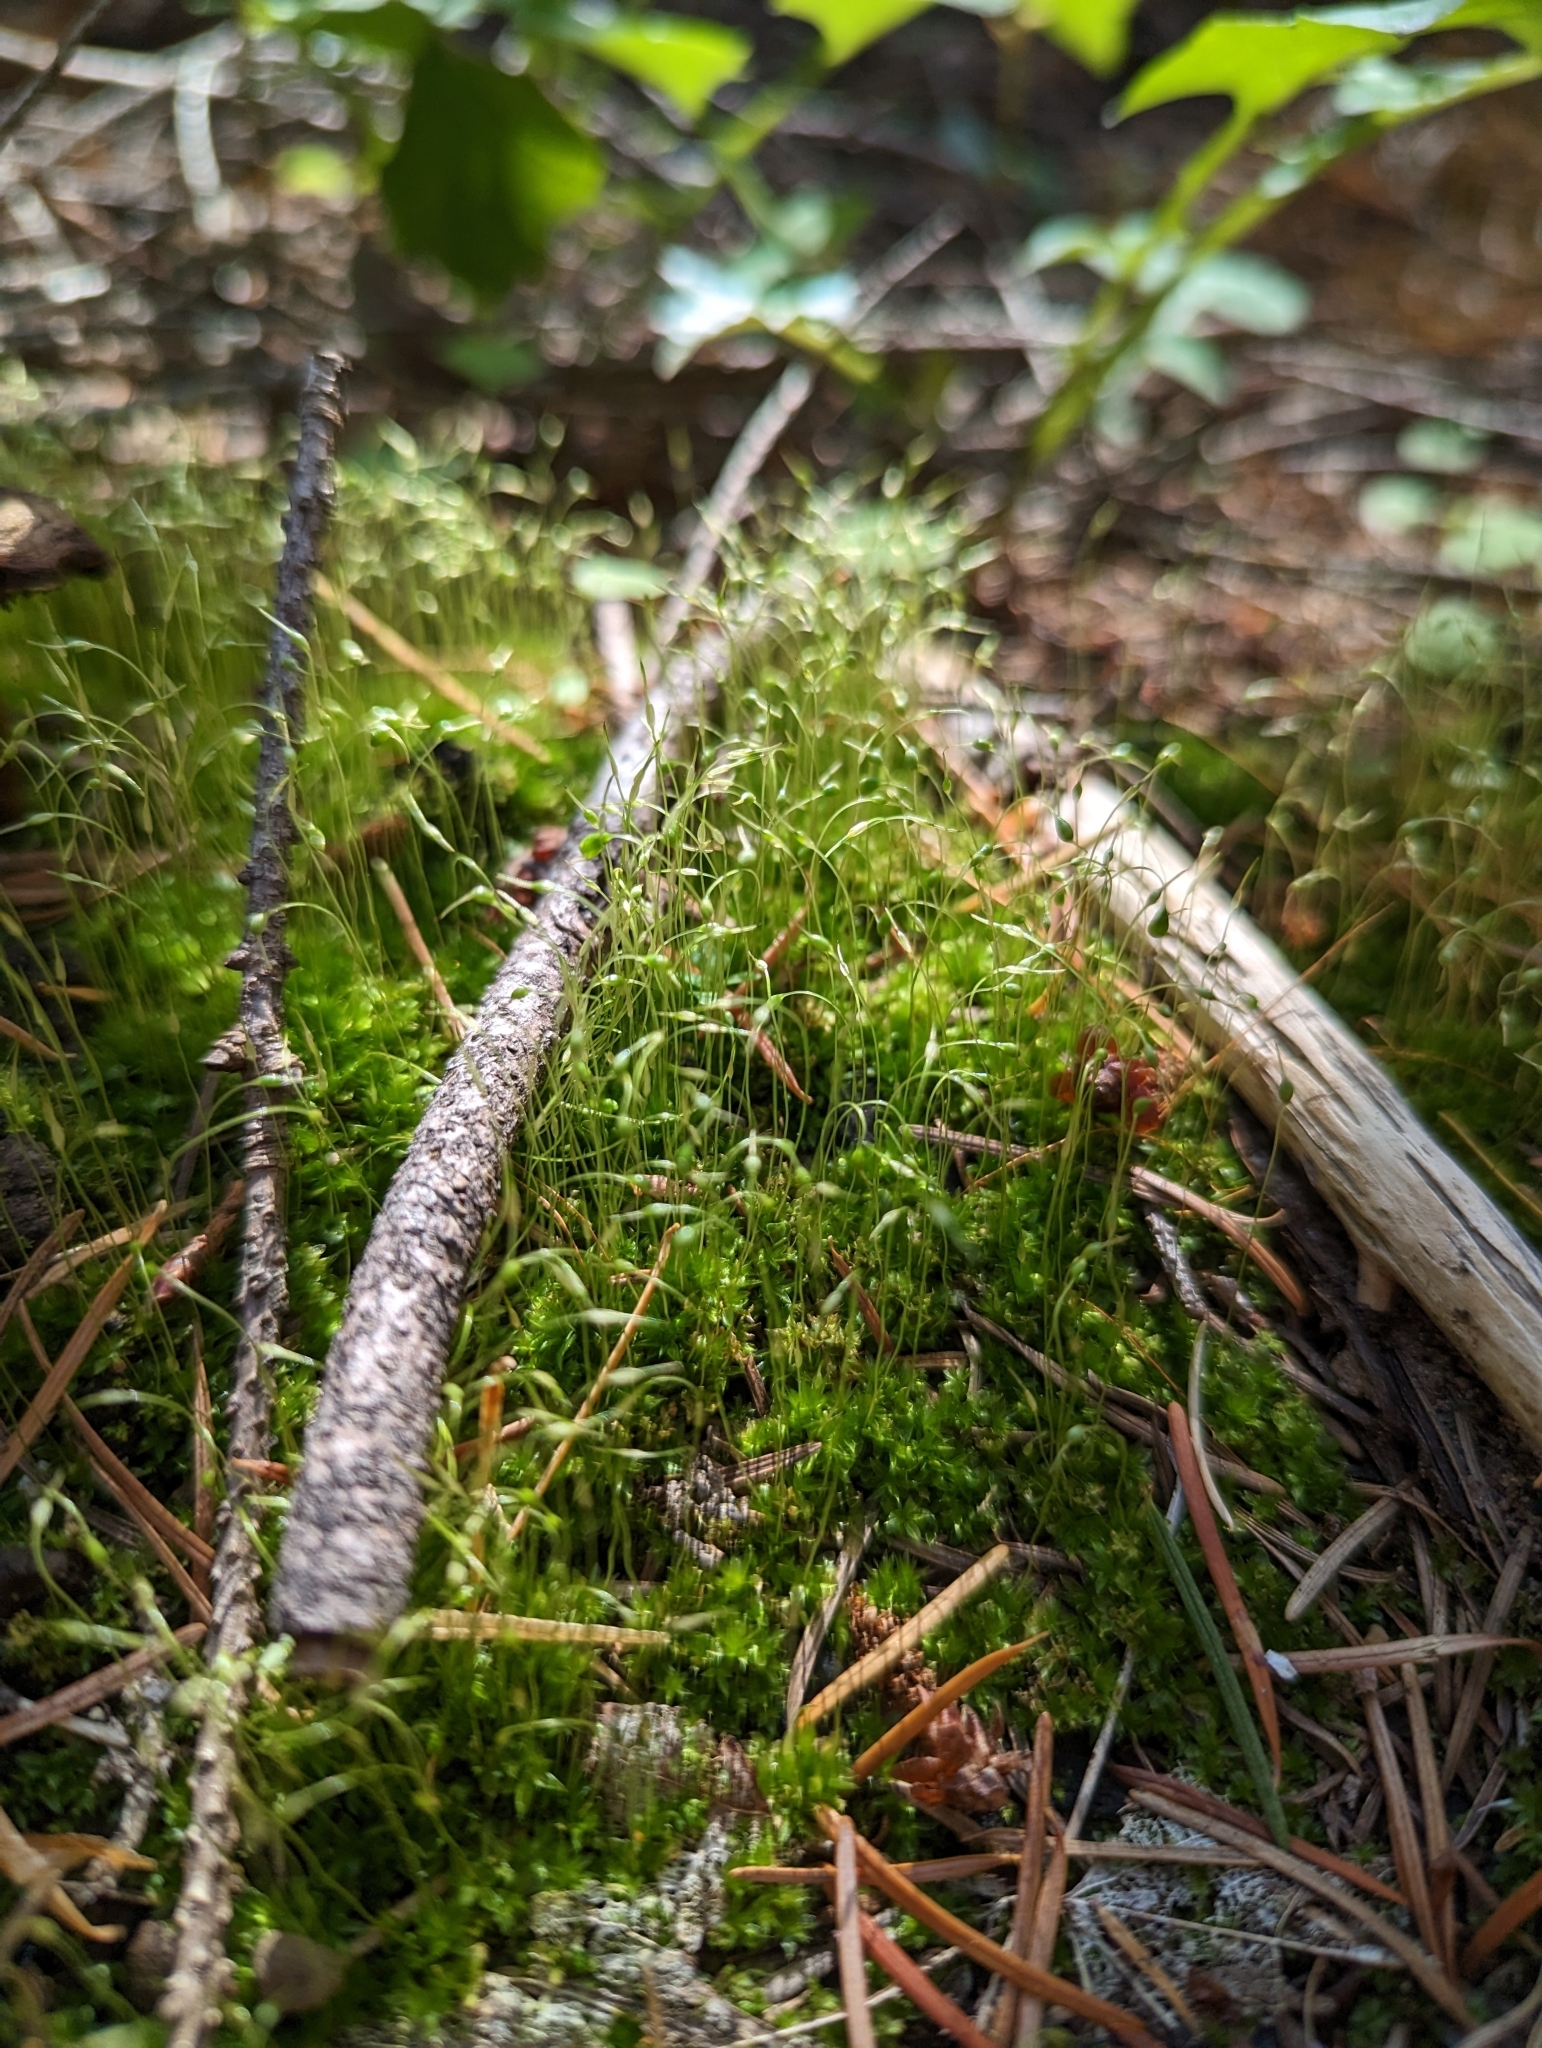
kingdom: Plantae
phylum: Bryophyta
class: Bryopsida
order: Funariales
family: Funariaceae
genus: Funaria
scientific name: Funaria hygrometrica
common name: Common cord moss
